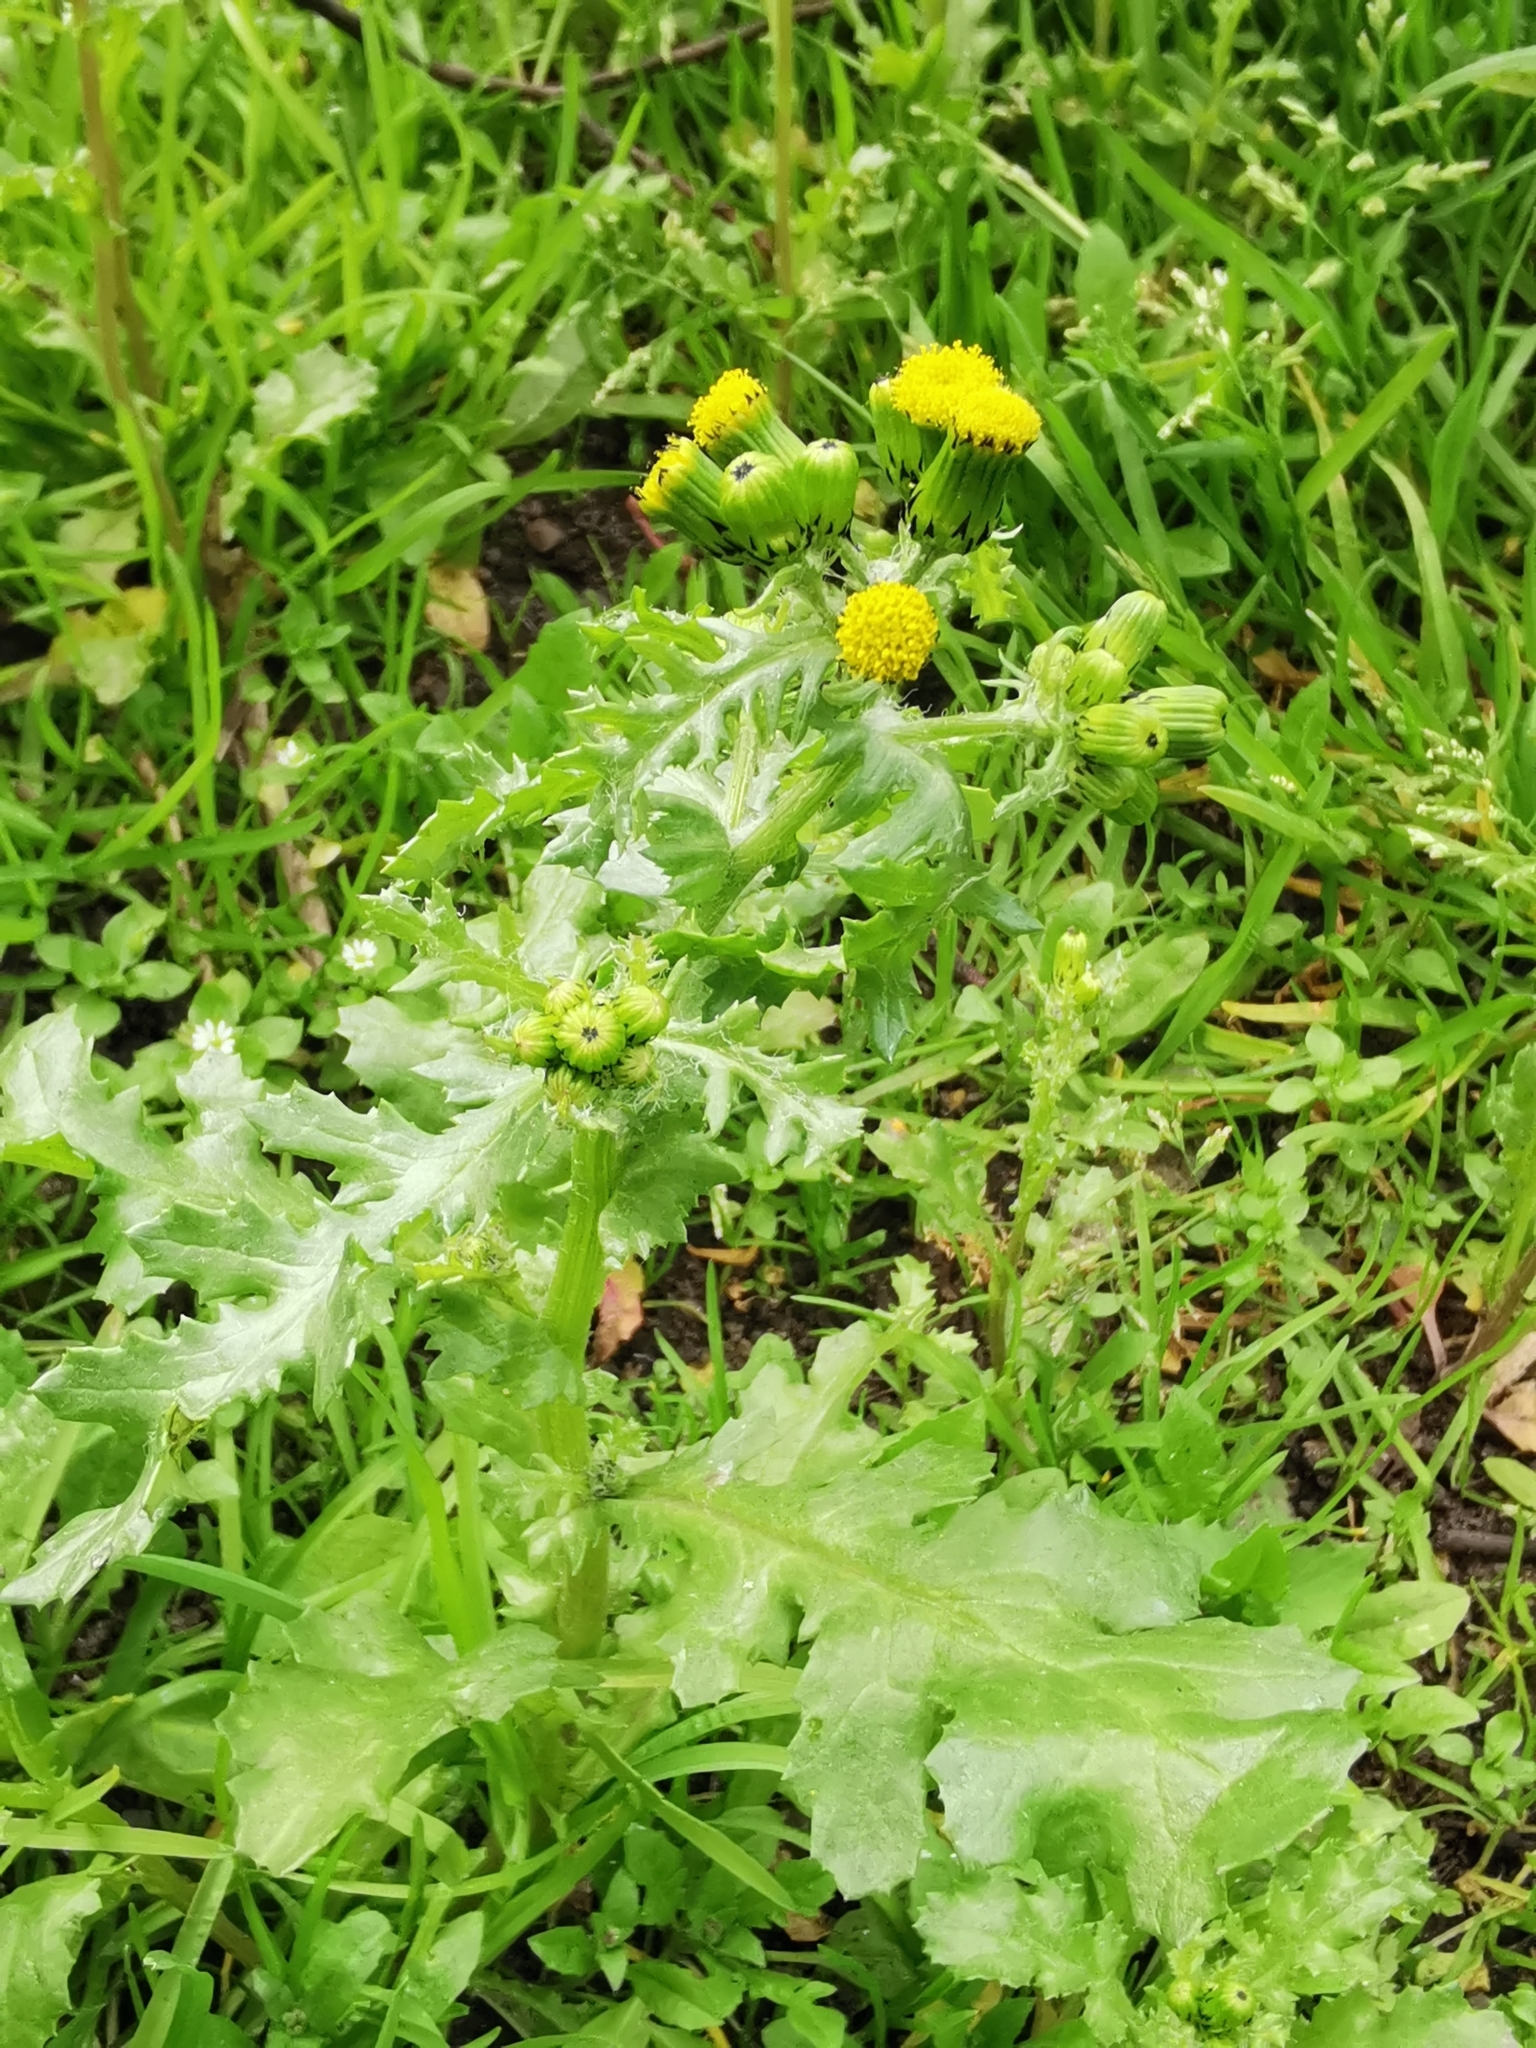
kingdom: Plantae
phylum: Tracheophyta
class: Magnoliopsida
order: Asterales
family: Asteraceae
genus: Senecio
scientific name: Senecio vulgaris
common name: Old-man-in-the-spring
